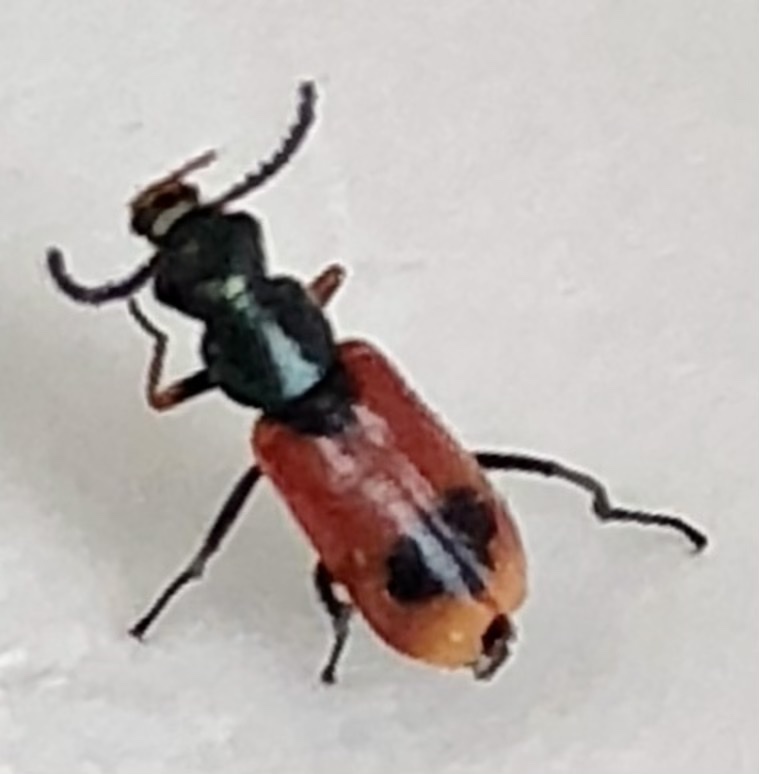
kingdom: Animalia
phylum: Arthropoda
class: Insecta
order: Coleoptera
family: Melyridae
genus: Anthocomus
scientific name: Anthocomus equestris
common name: Black-banded soft-winged flower beetle
